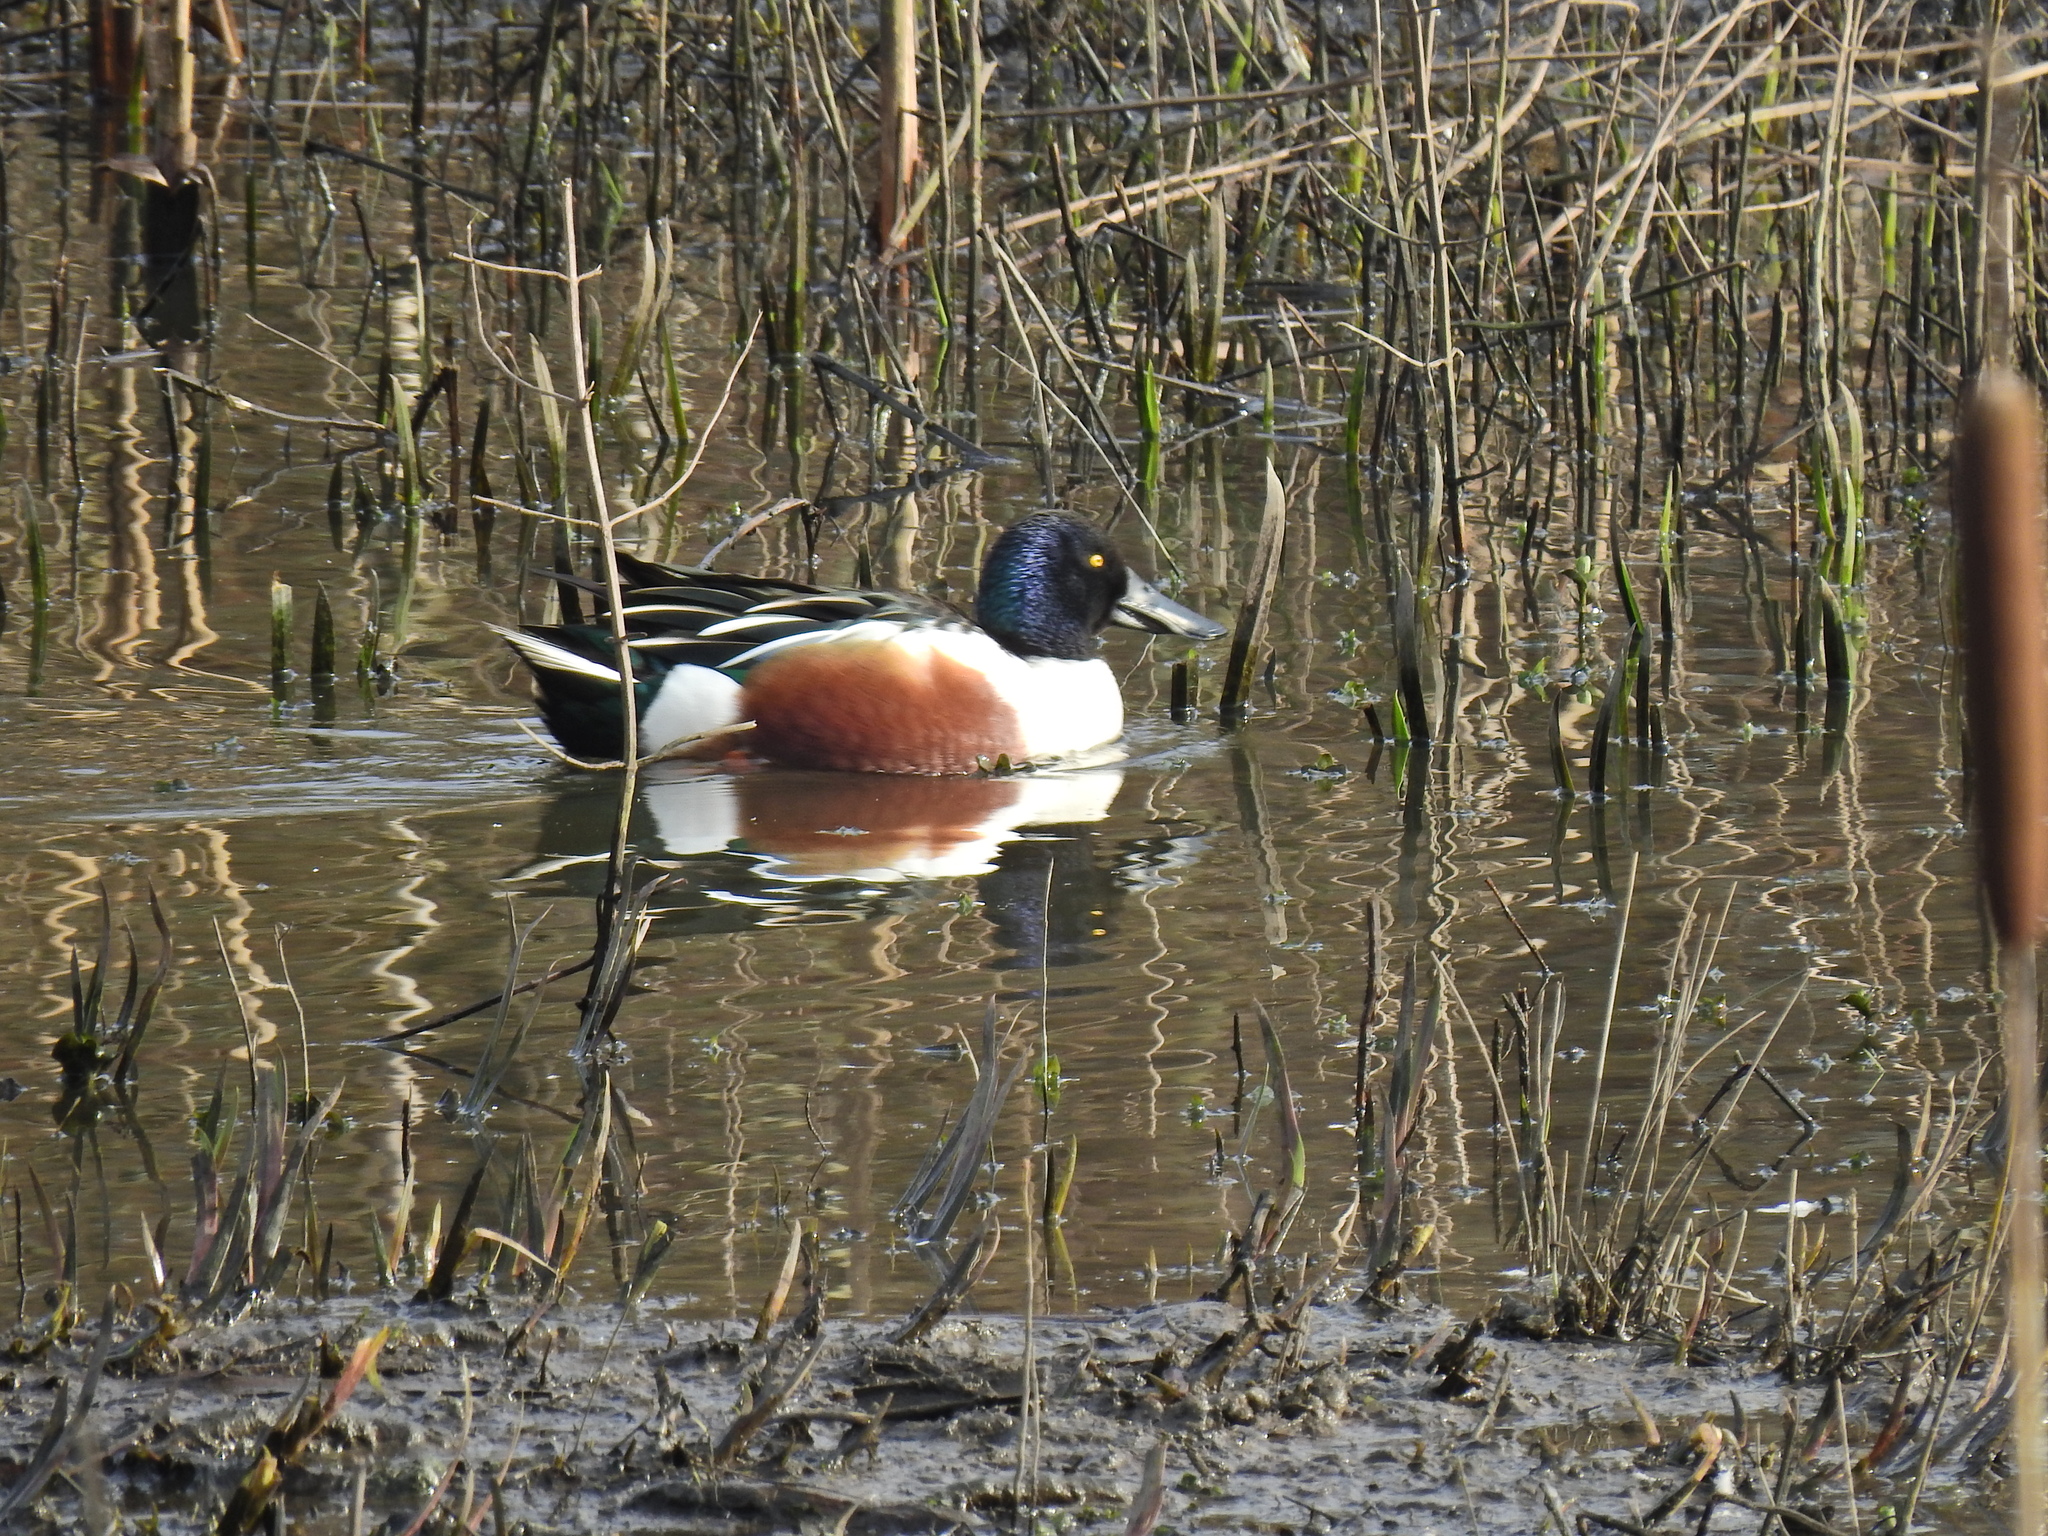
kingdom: Animalia
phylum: Chordata
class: Aves
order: Anseriformes
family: Anatidae
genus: Spatula
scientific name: Spatula clypeata
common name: Northern shoveler
